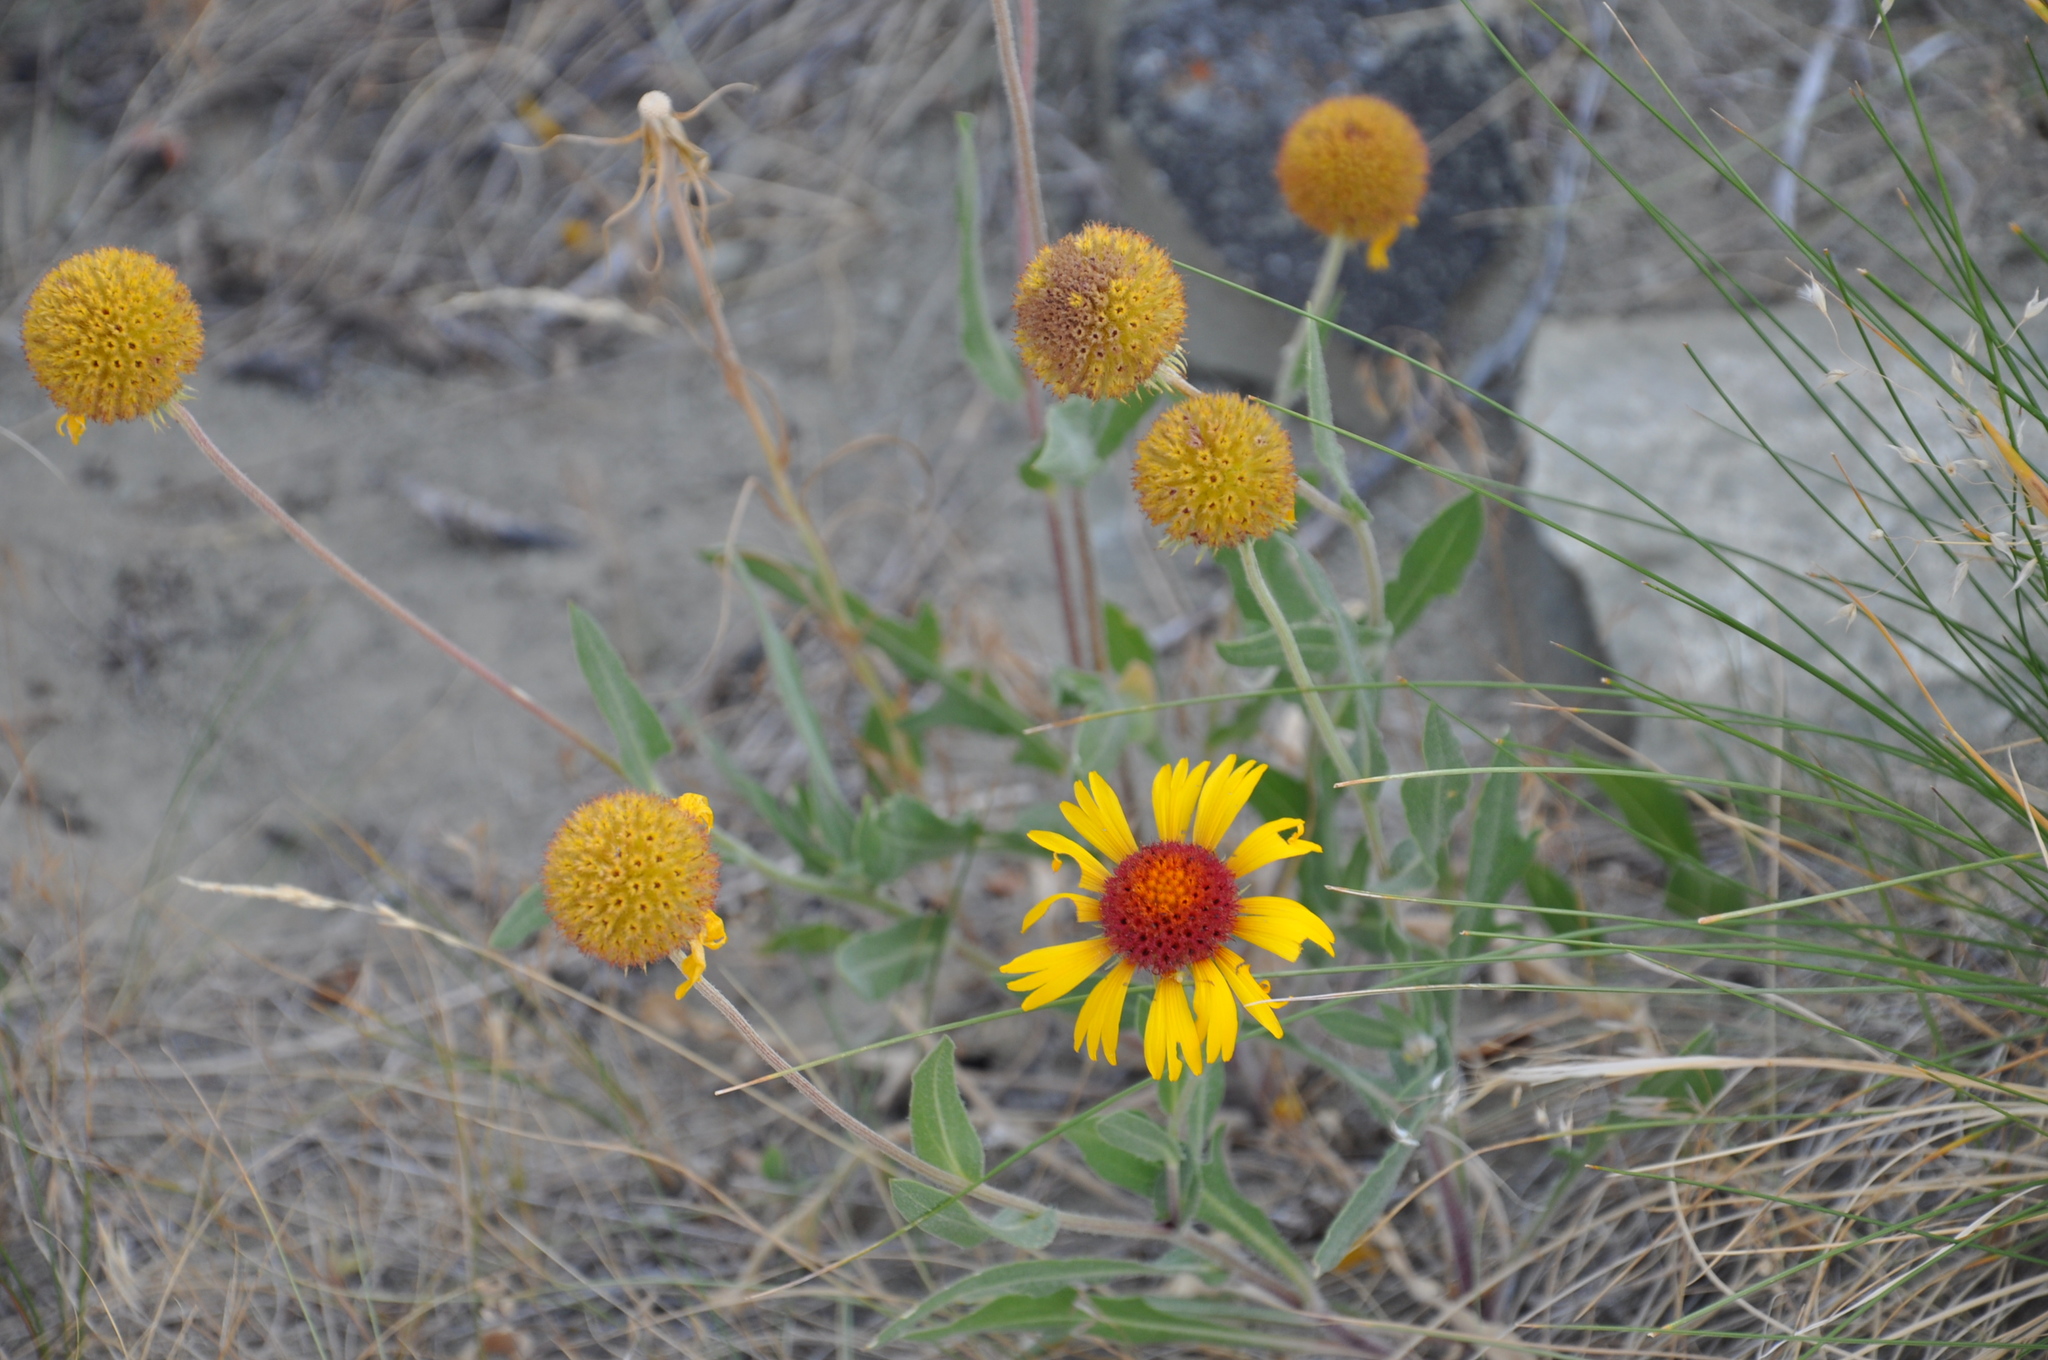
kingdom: Plantae
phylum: Tracheophyta
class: Magnoliopsida
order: Asterales
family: Asteraceae
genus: Gaillardia
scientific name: Gaillardia aristata
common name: Blanket-flower
